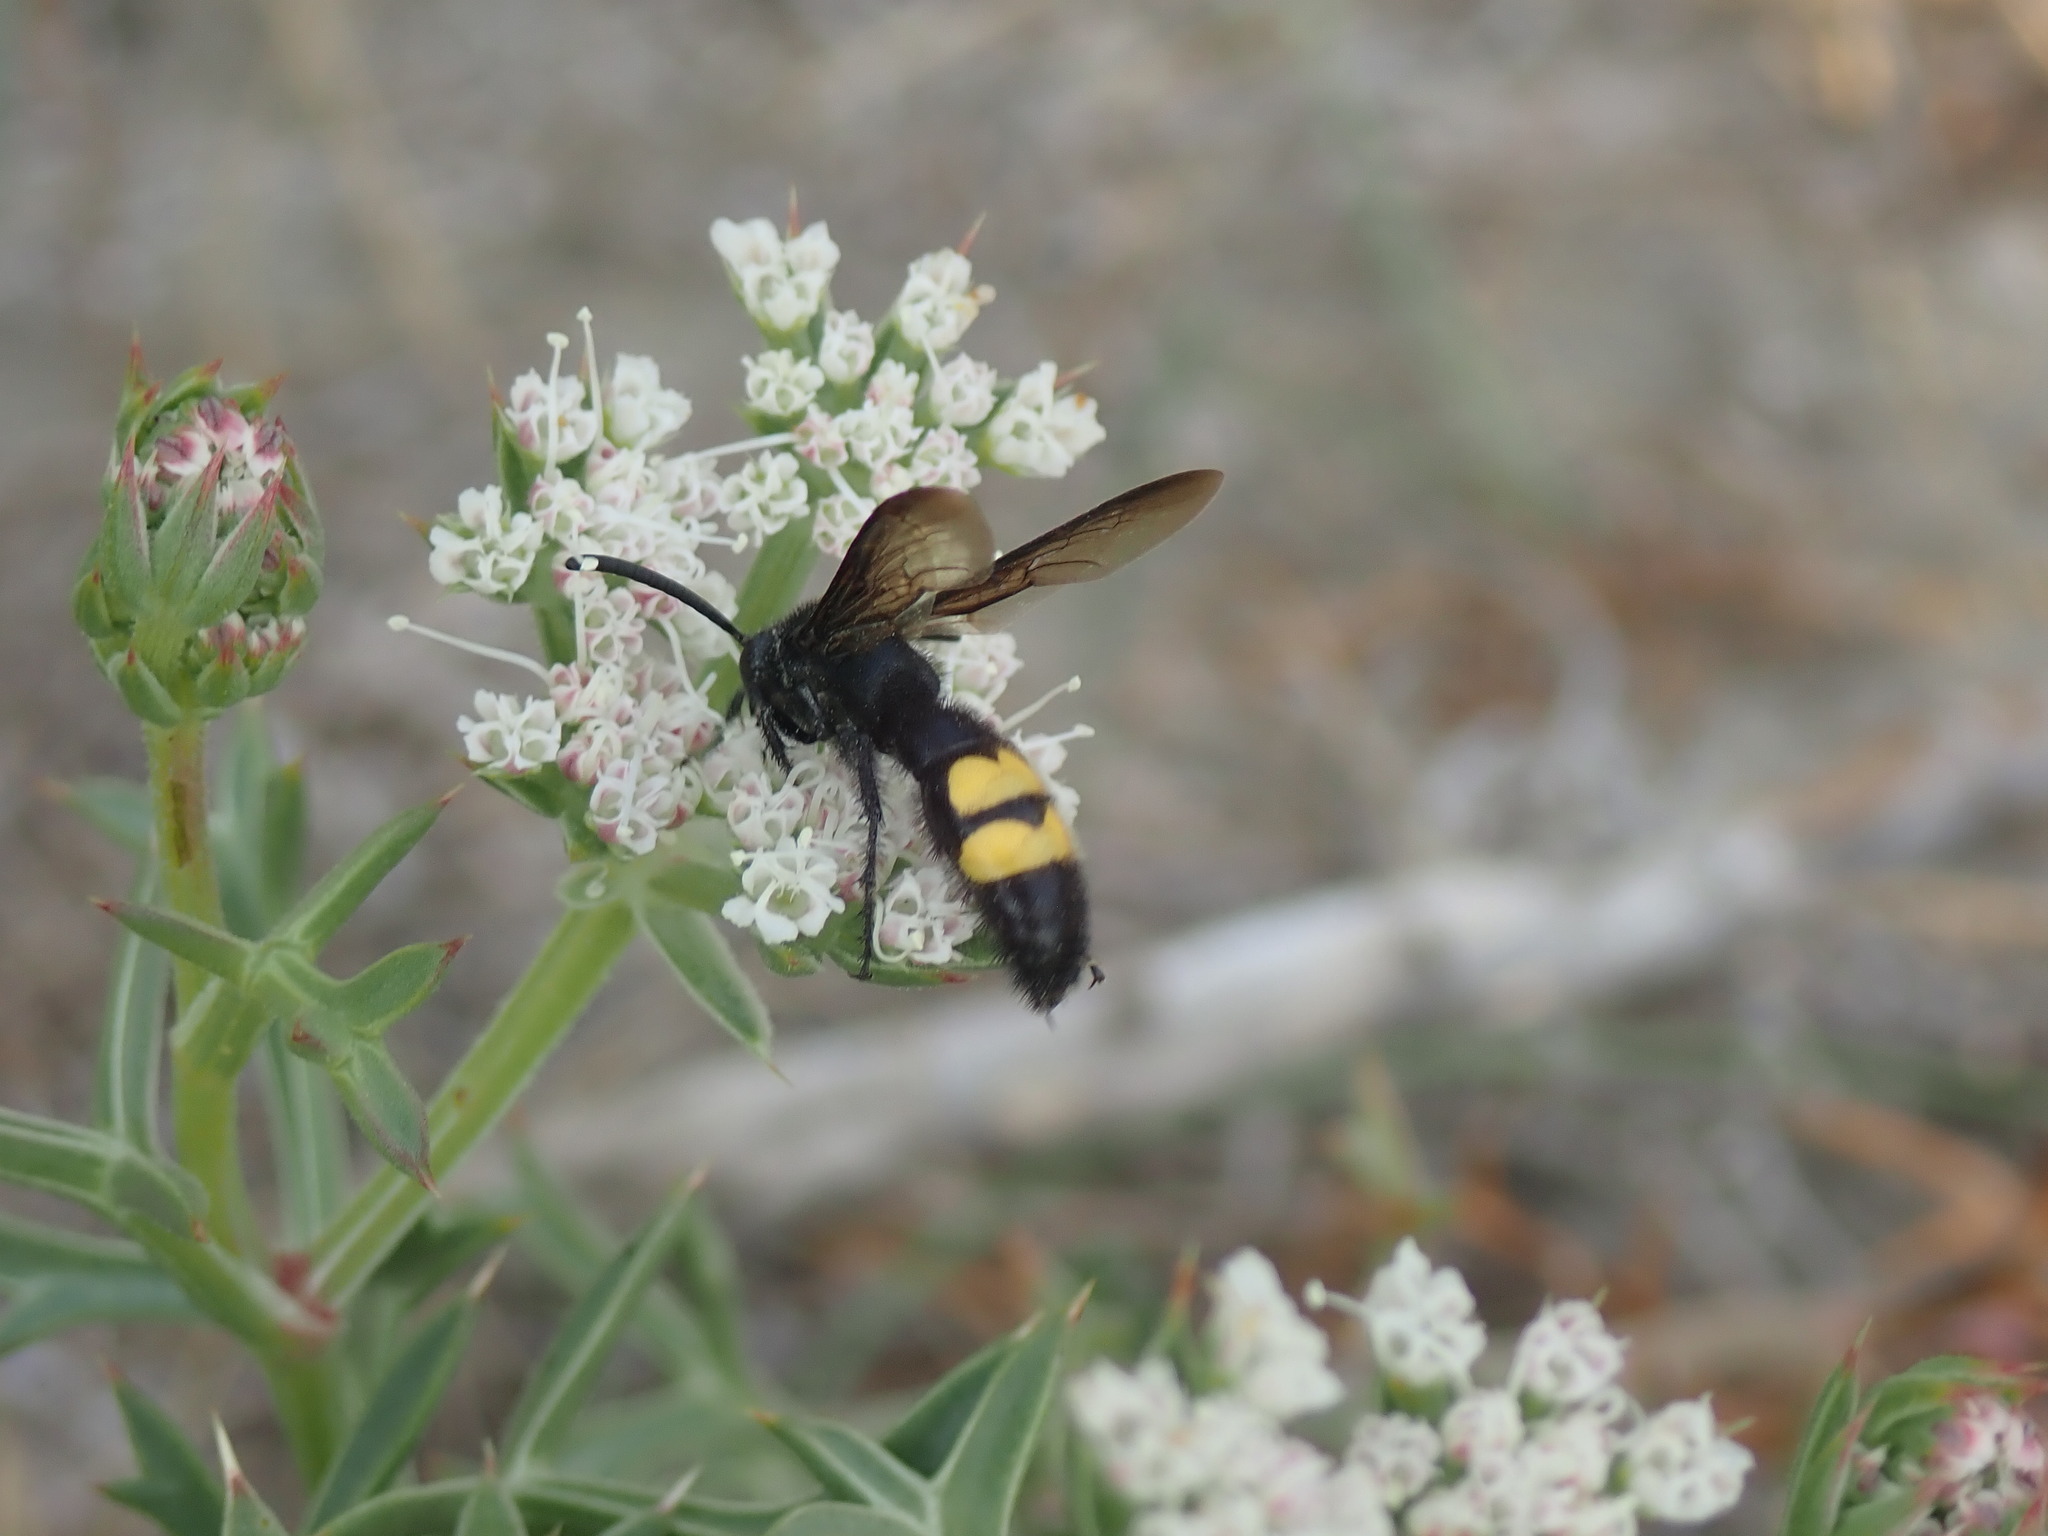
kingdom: Animalia
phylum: Arthropoda
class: Insecta
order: Hymenoptera
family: Scoliidae
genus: Scolia
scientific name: Scolia hirta
